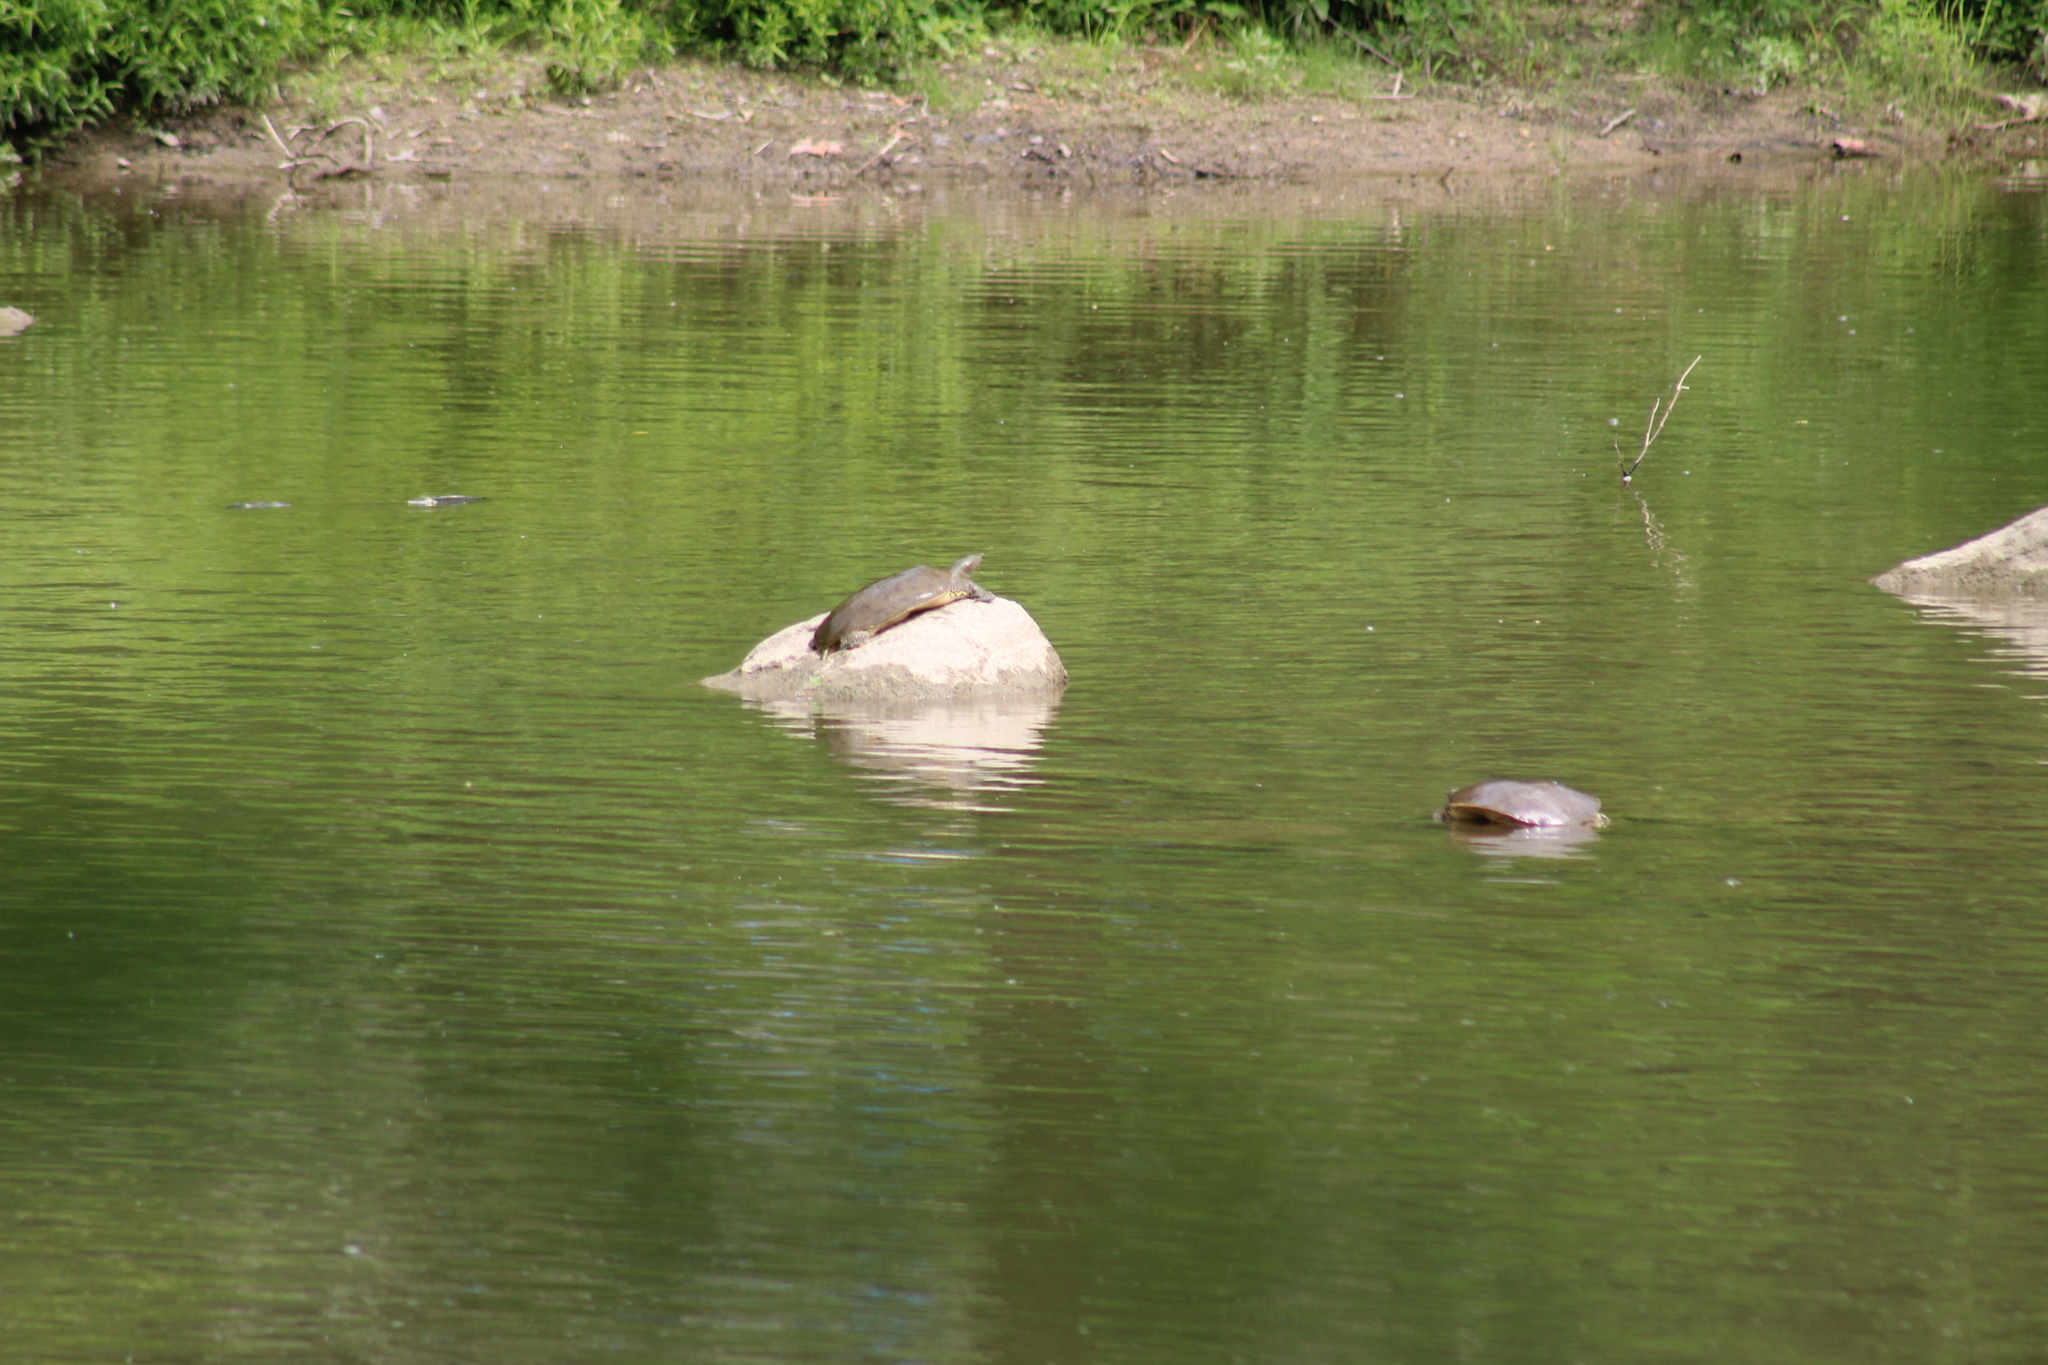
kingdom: Animalia
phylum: Chordata
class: Testudines
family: Trionychidae
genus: Apalone
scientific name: Apalone spinifera
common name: Spiny softshell turtle
